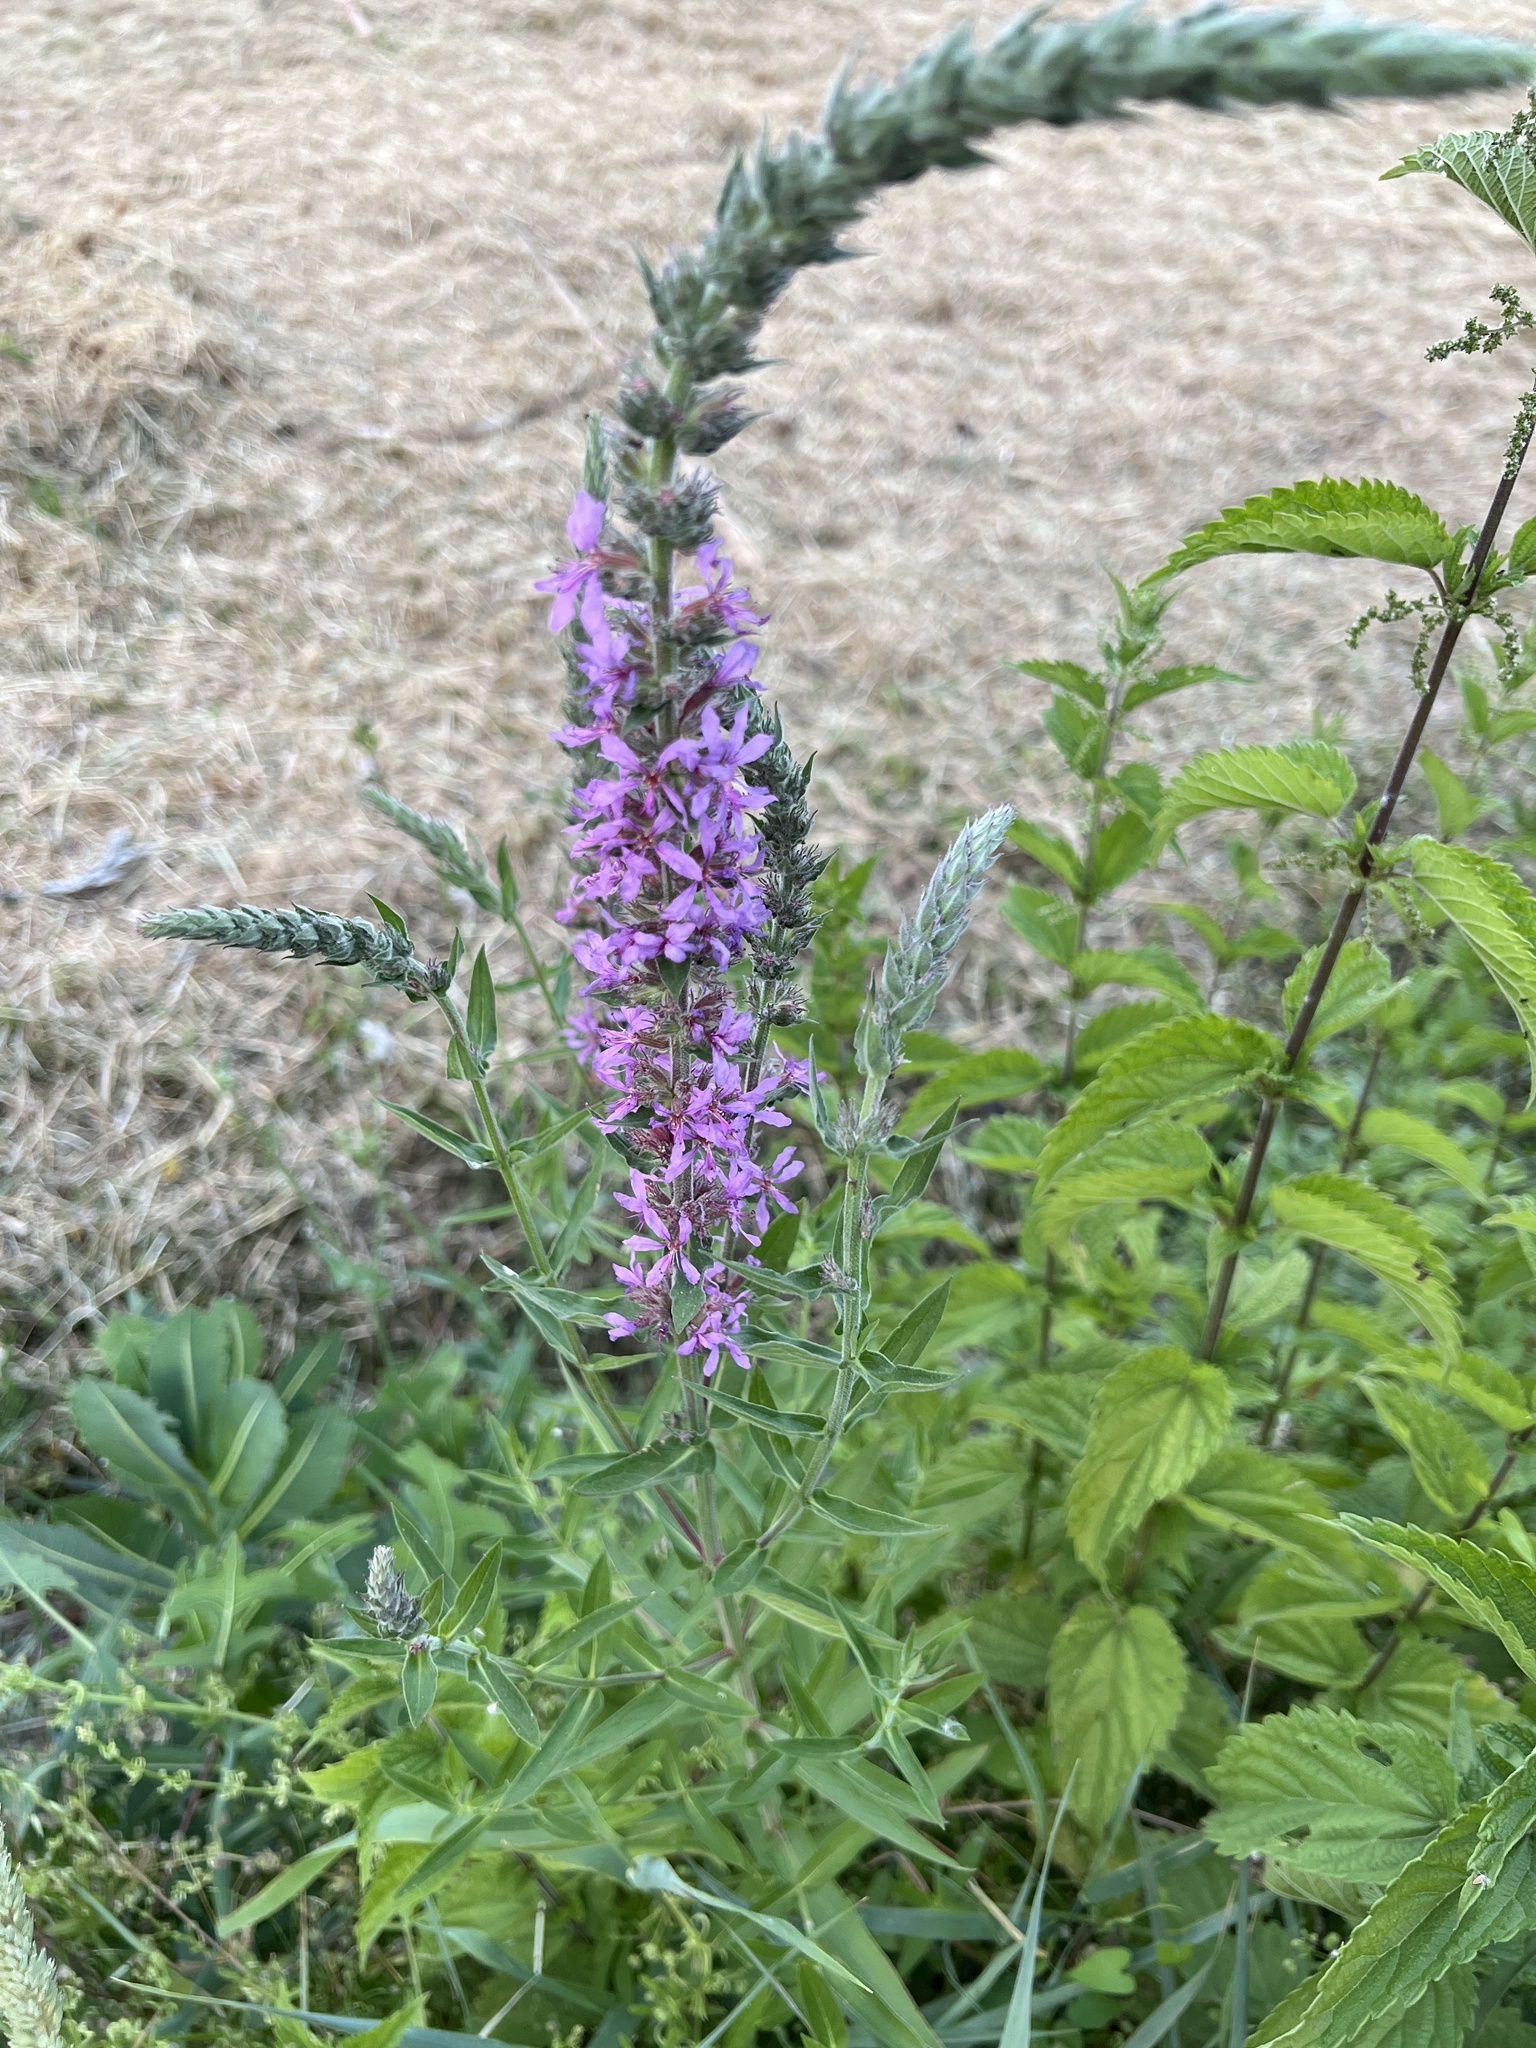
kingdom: Plantae
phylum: Tracheophyta
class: Magnoliopsida
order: Myrtales
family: Lythraceae
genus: Lythrum
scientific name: Lythrum salicaria
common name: Purple loosestrife
